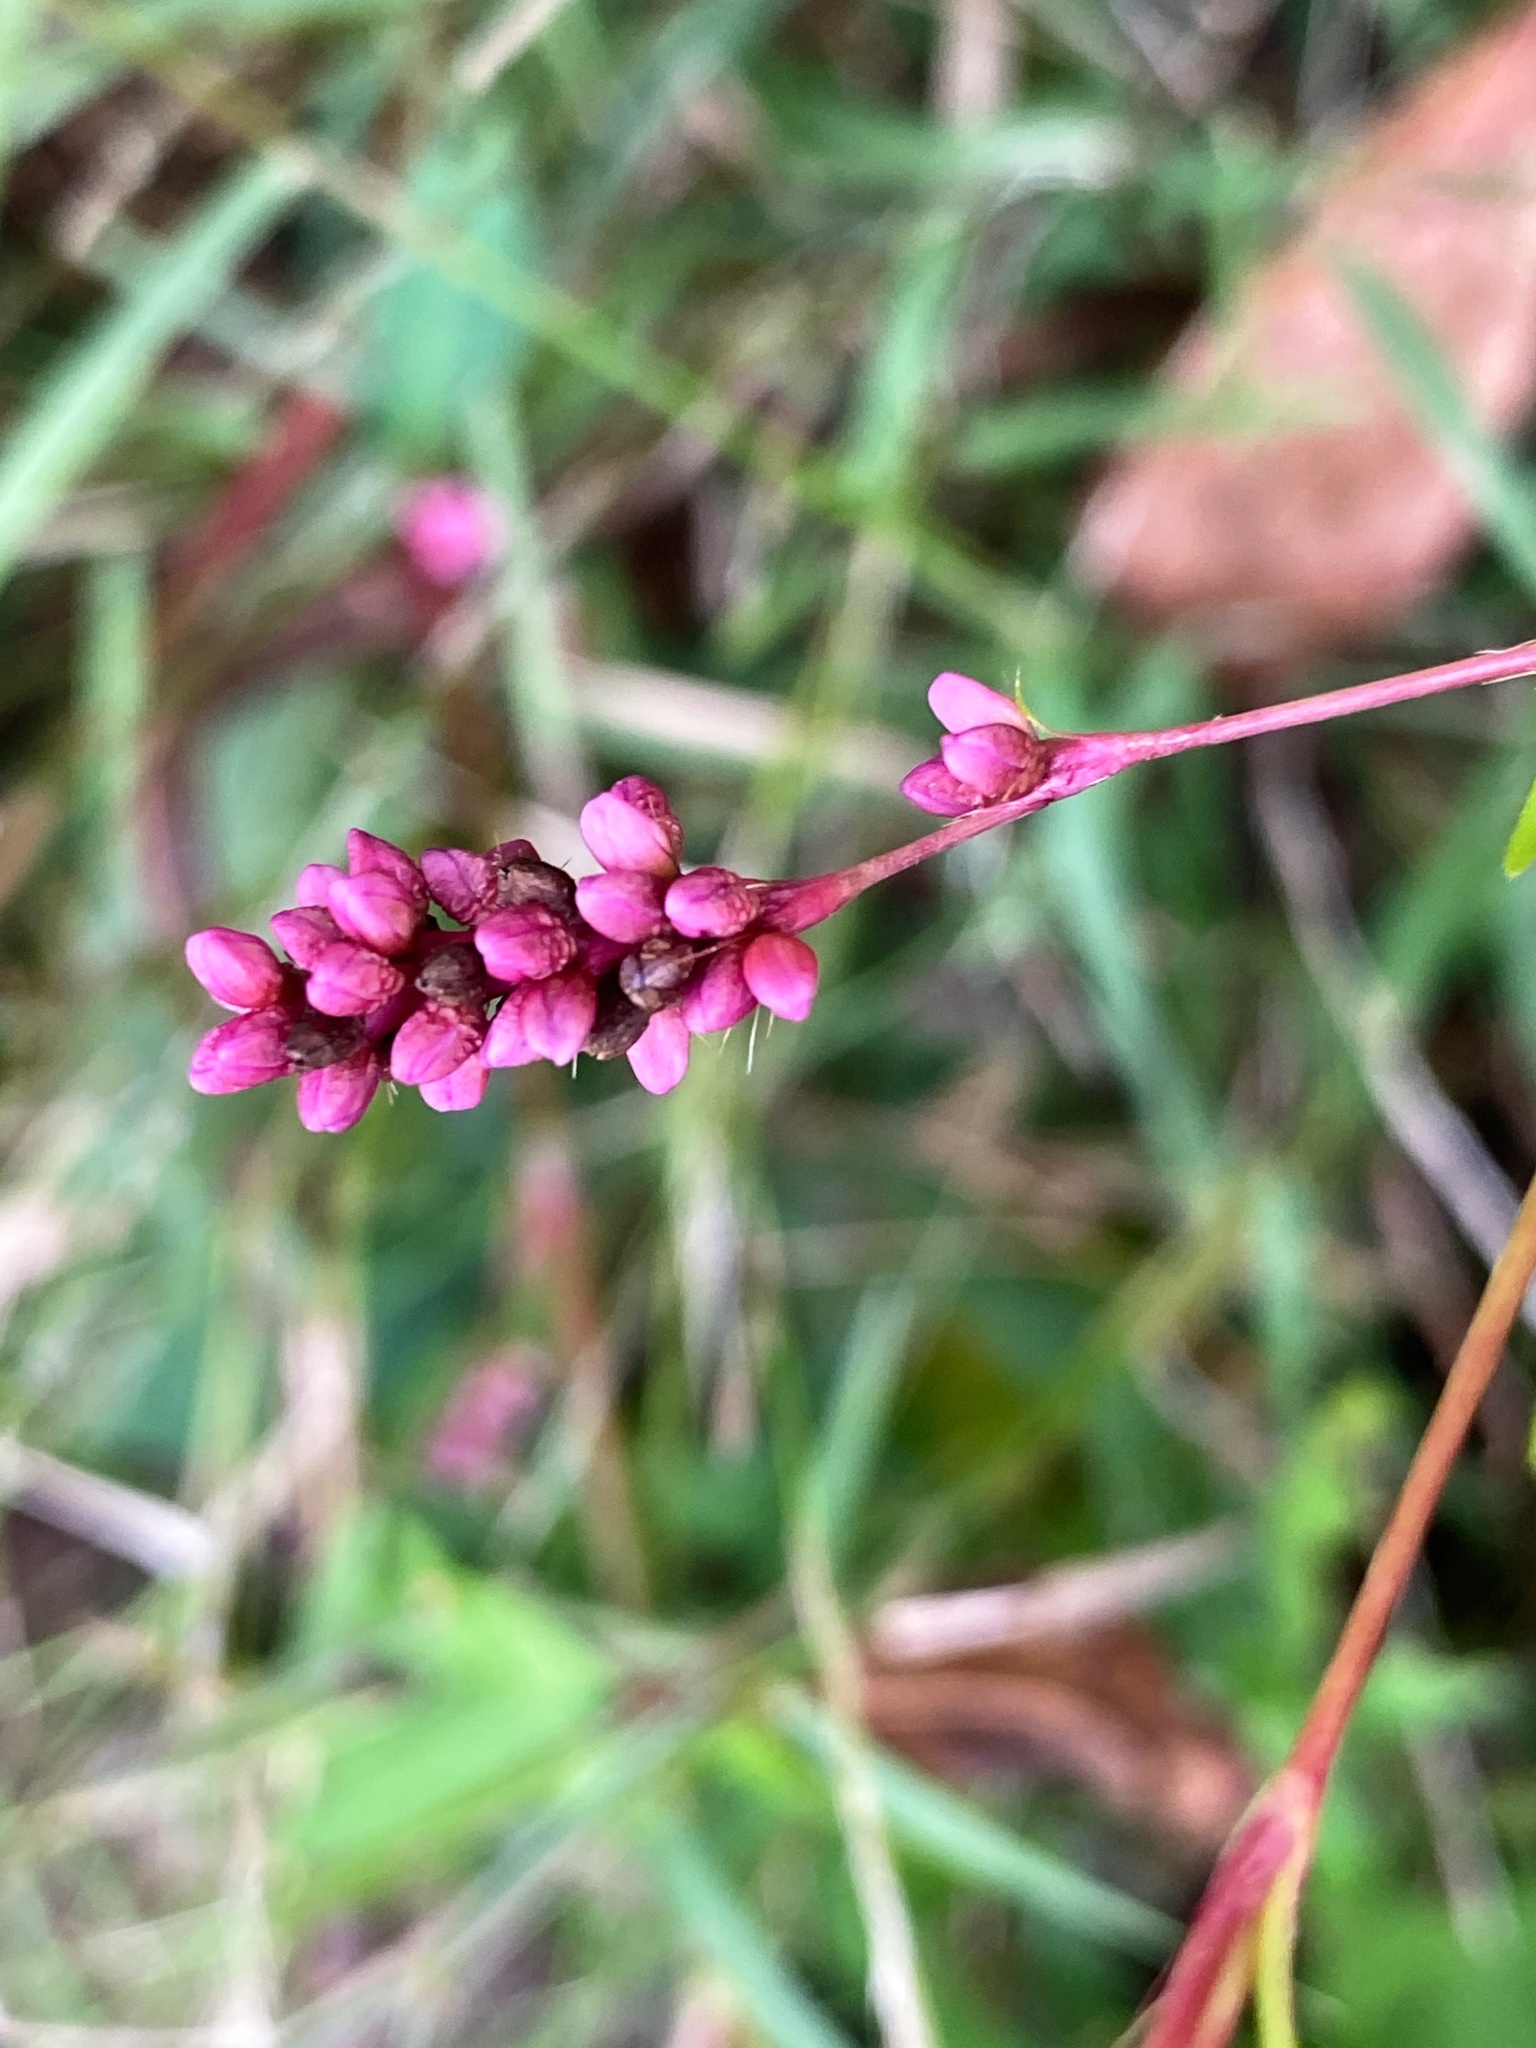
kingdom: Plantae
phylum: Tracheophyta
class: Magnoliopsida
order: Caryophyllales
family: Polygonaceae
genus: Persicaria
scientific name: Persicaria longiseta
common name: Bristly lady's-thumb
